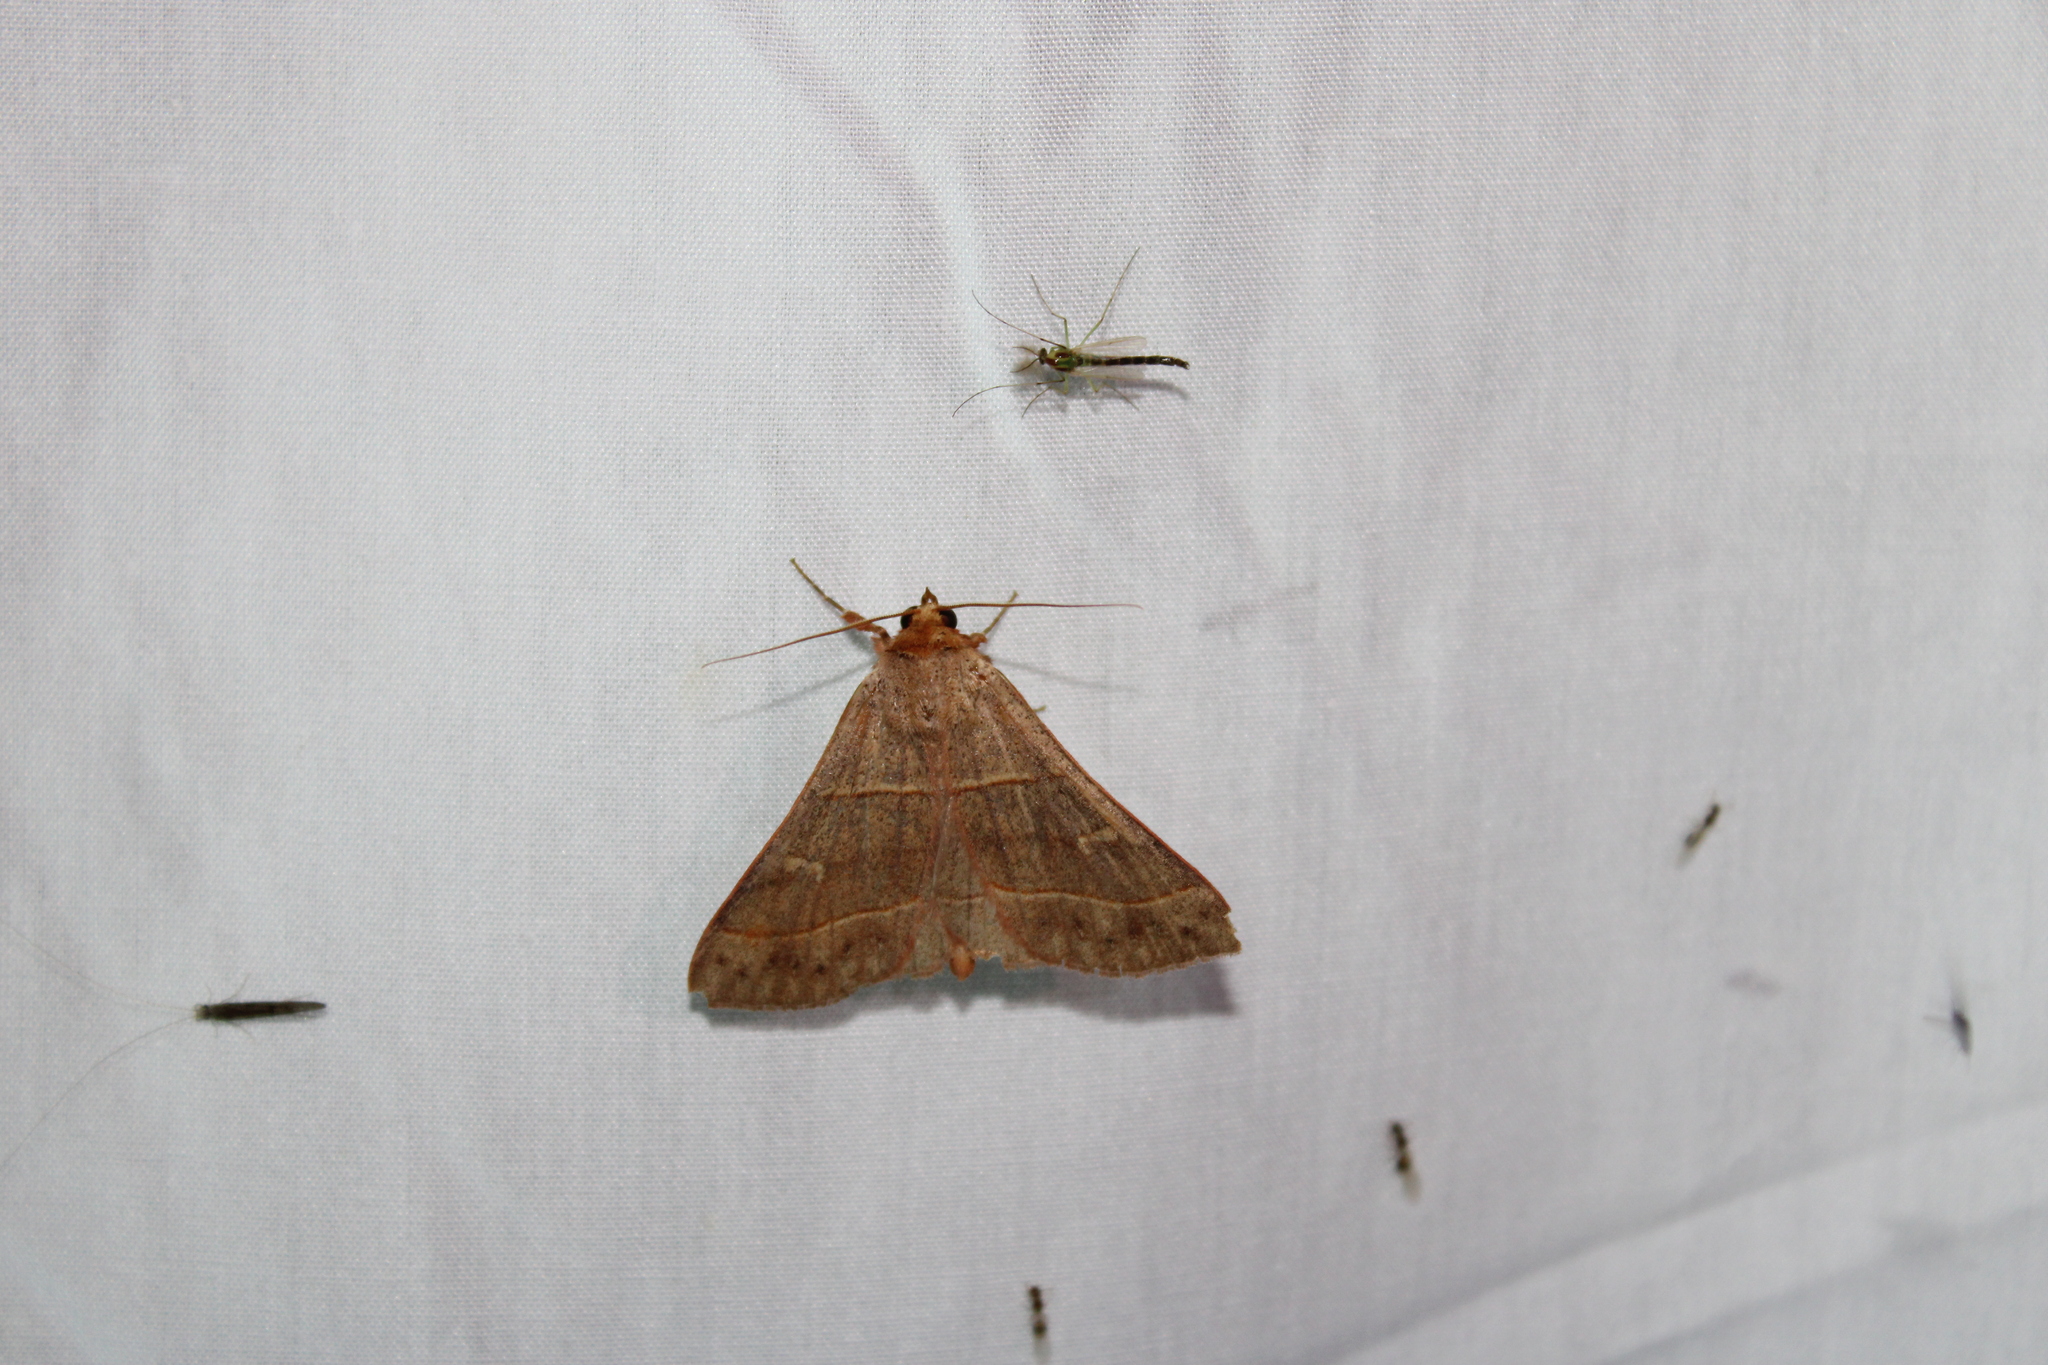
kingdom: Animalia
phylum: Arthropoda
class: Insecta
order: Lepidoptera
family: Erebidae
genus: Panopoda
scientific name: Panopoda rufimargo
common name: Red-lined panopoda moth
